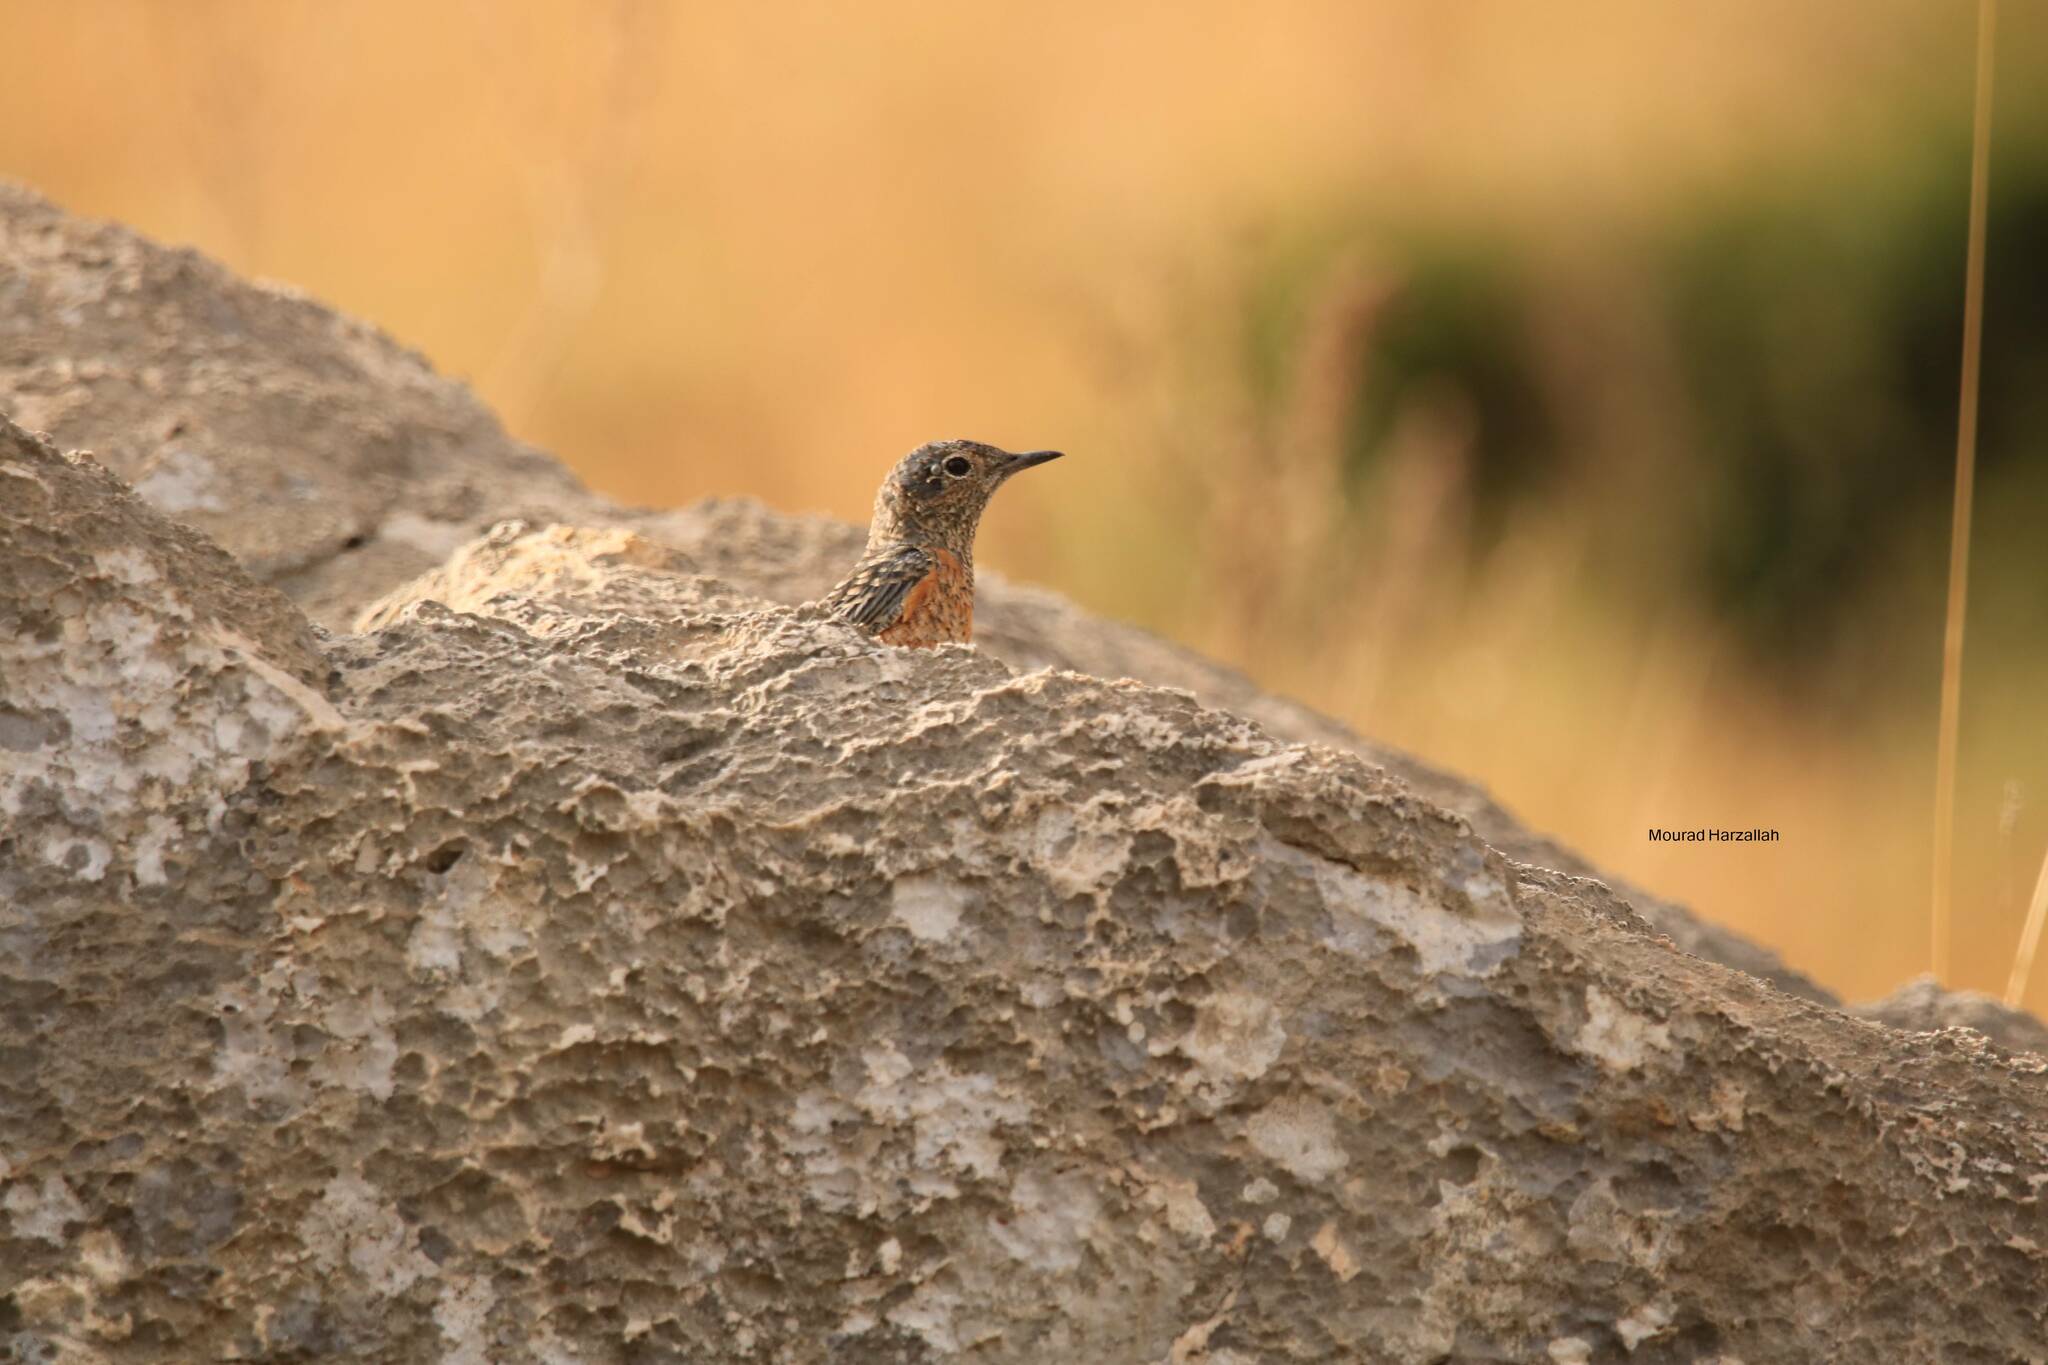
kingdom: Animalia
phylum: Chordata
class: Aves
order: Passeriformes
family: Muscicapidae
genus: Monticola
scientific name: Monticola saxatilis
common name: Rufous-tailed rock thrush
